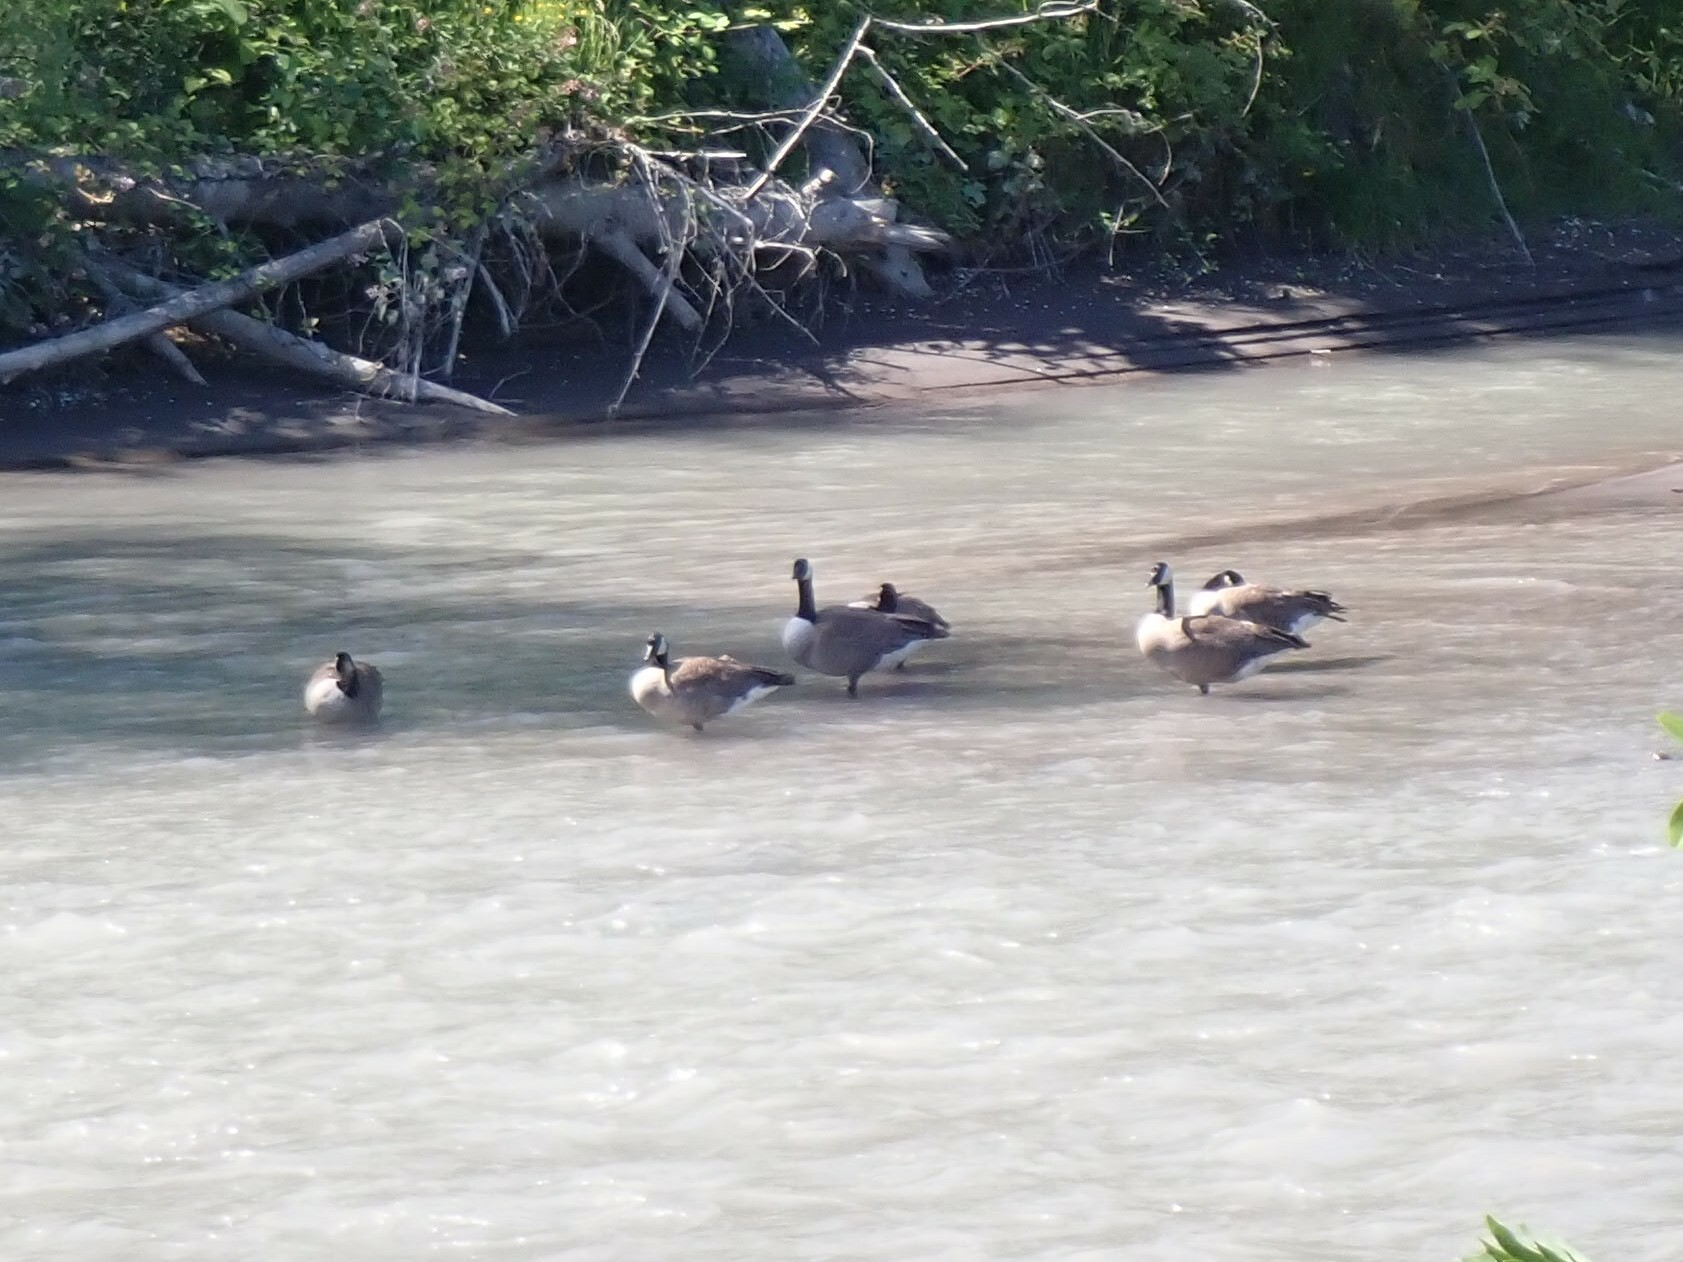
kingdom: Animalia
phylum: Chordata
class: Aves
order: Anseriformes
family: Anatidae
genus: Branta
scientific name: Branta canadensis
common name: Canada goose
